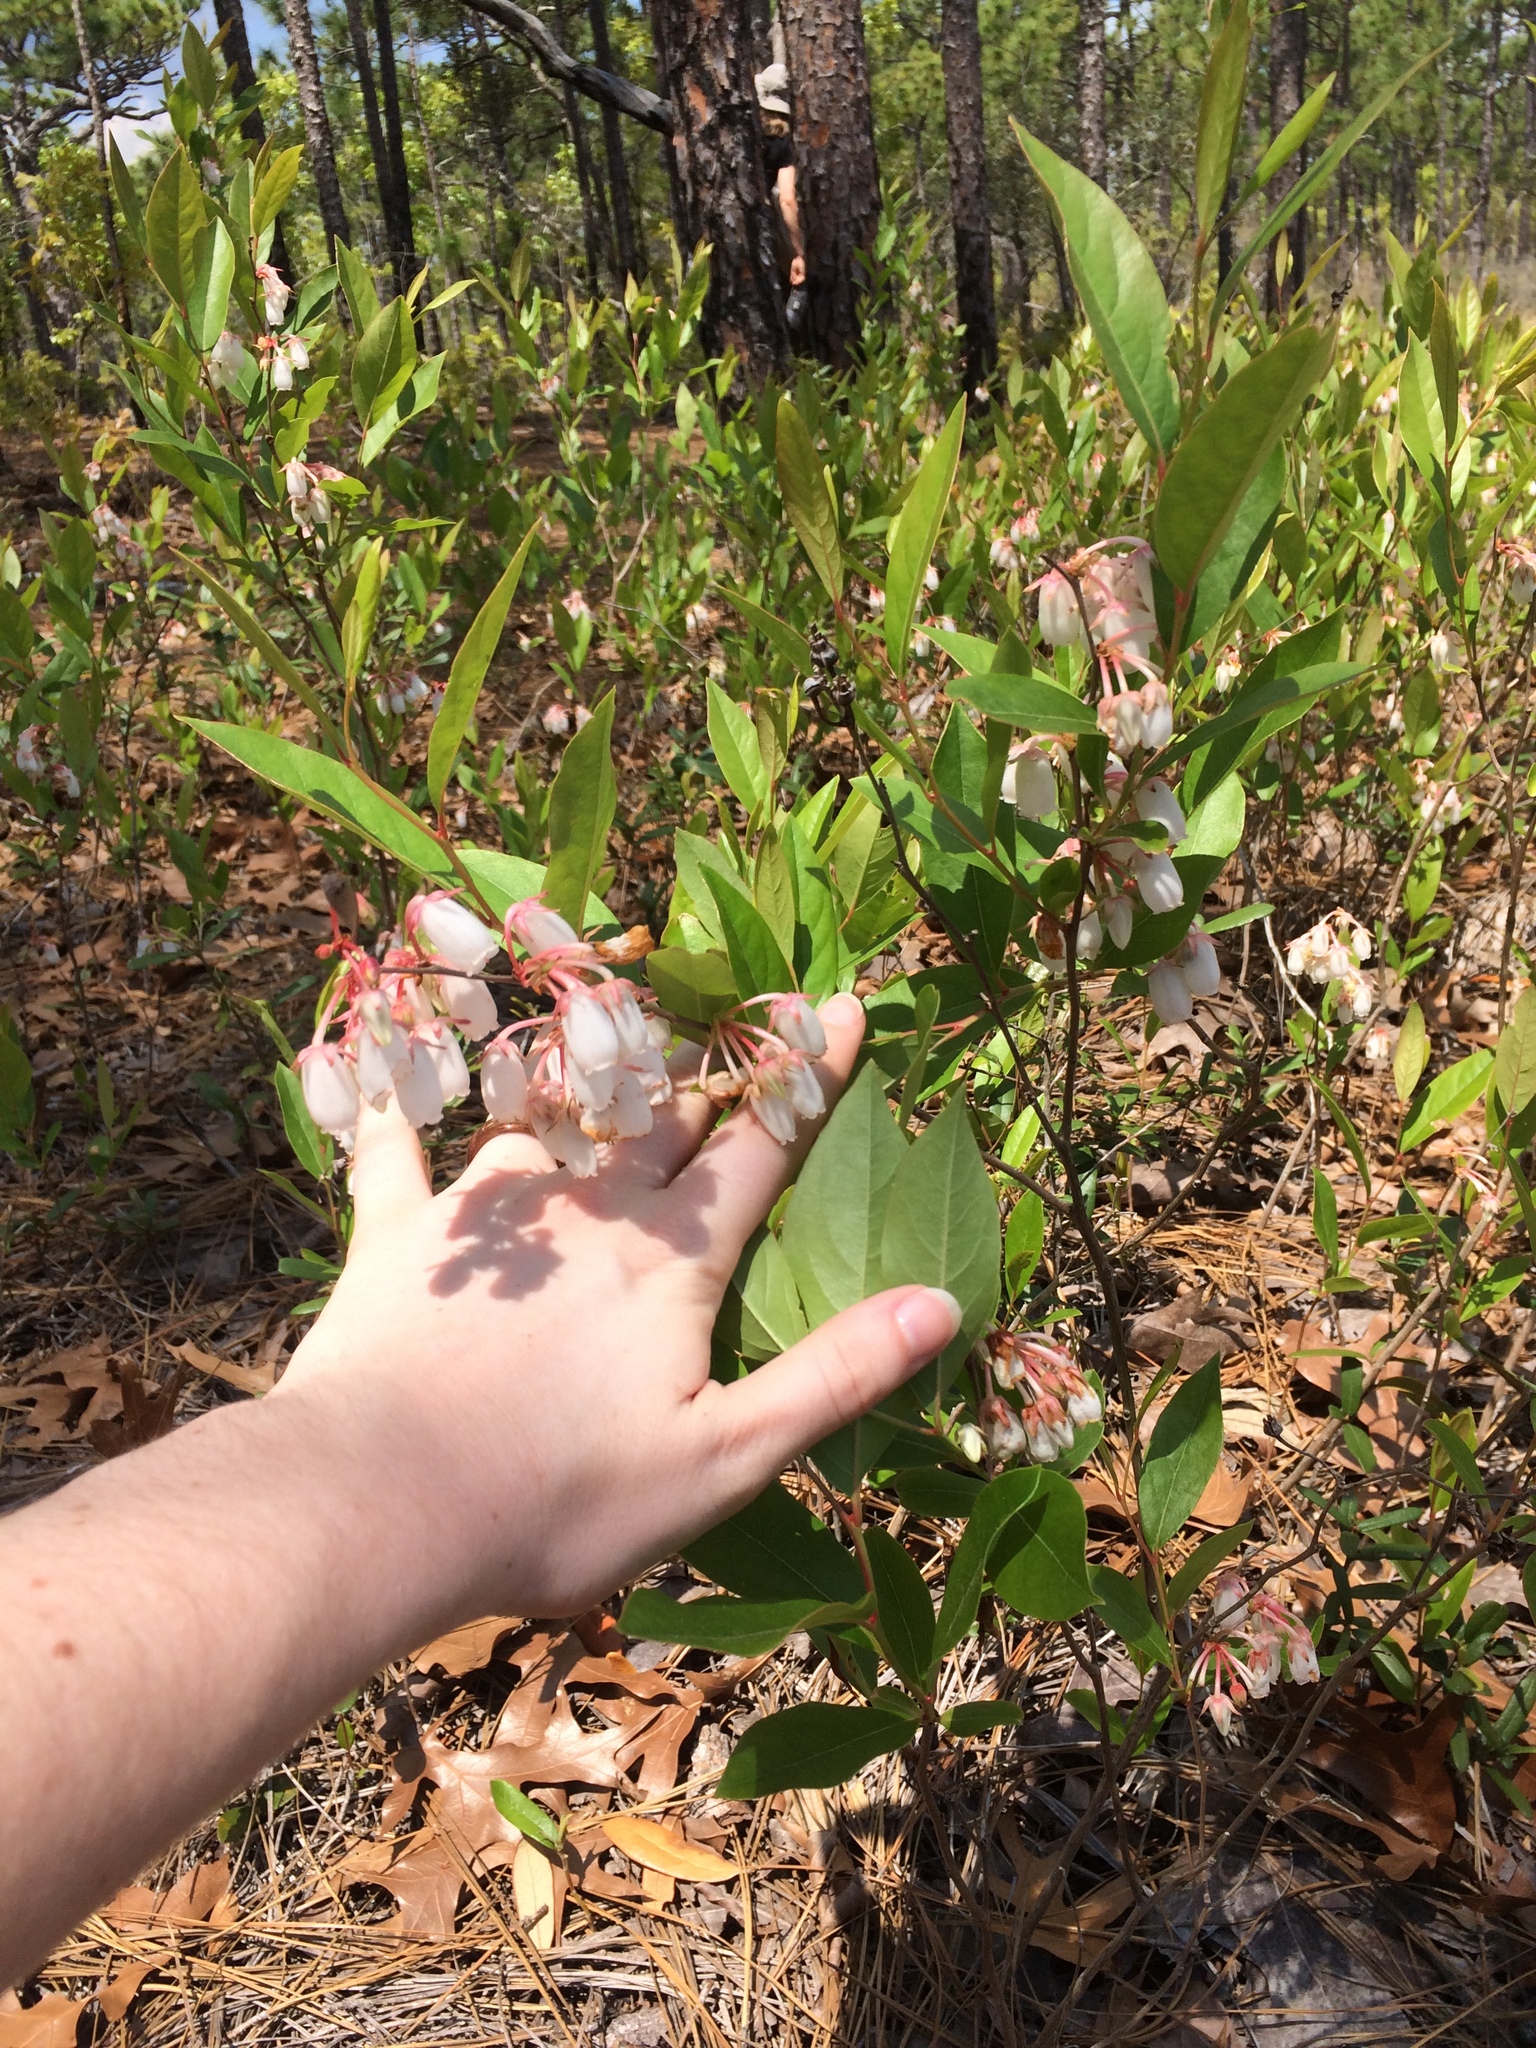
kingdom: Plantae
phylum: Tracheophyta
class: Magnoliopsida
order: Ericales
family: Ericaceae
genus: Lyonia
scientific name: Lyonia mariana
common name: Staggerbush
